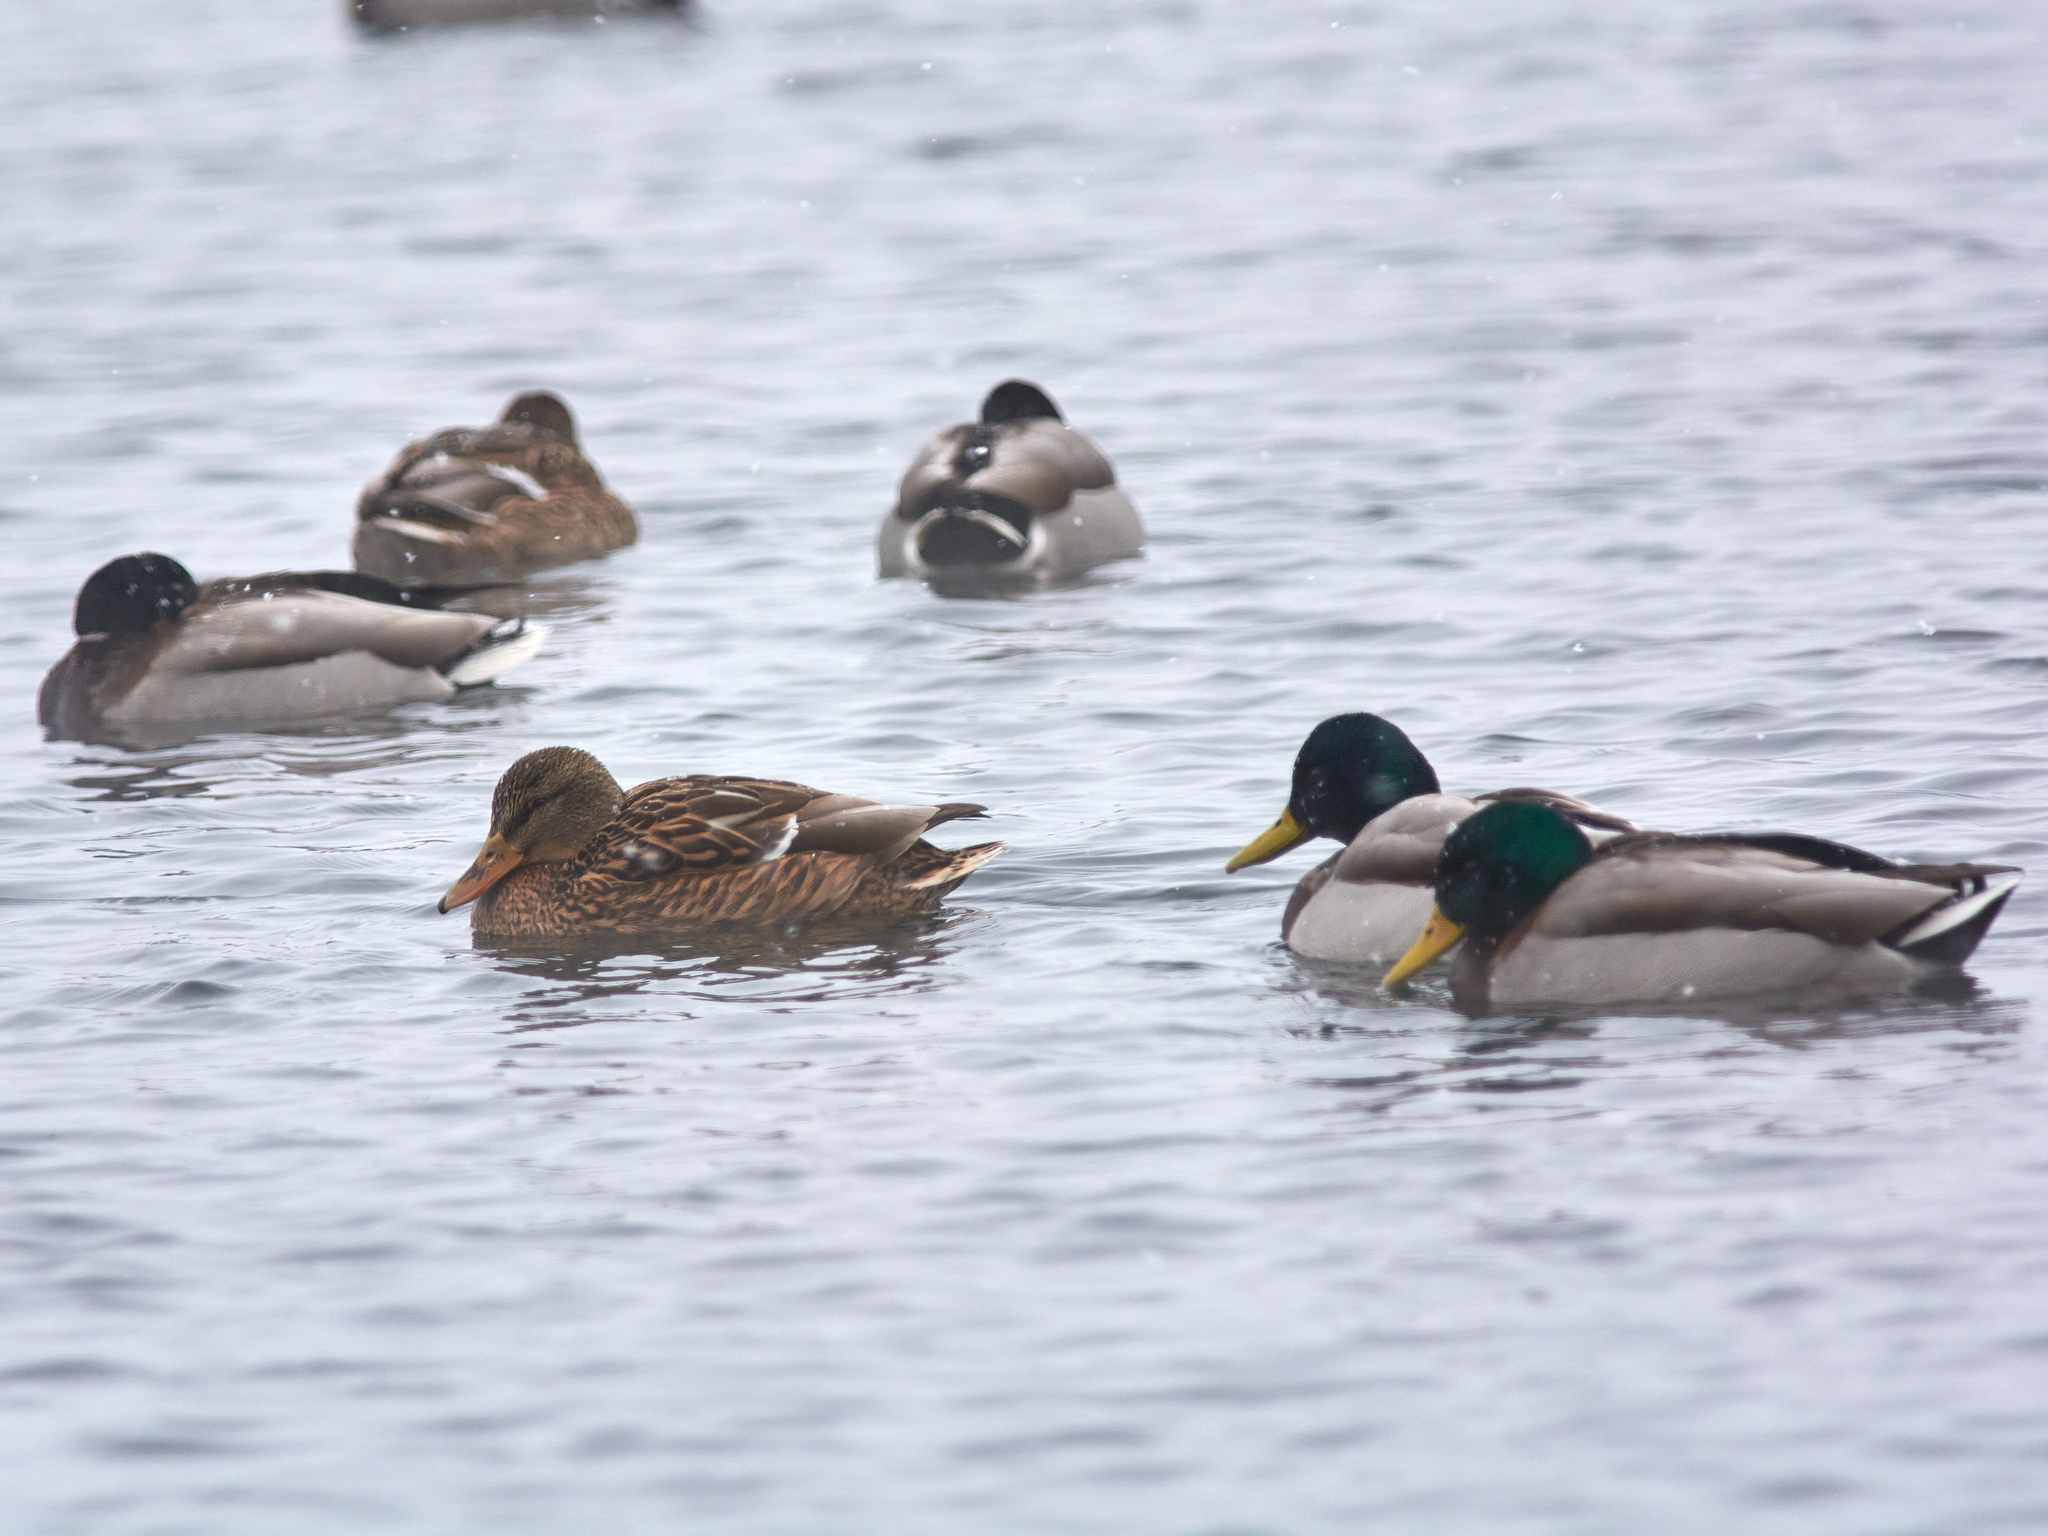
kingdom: Animalia
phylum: Chordata
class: Aves
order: Anseriformes
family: Anatidae
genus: Anas
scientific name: Anas platyrhynchos
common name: Mallard
